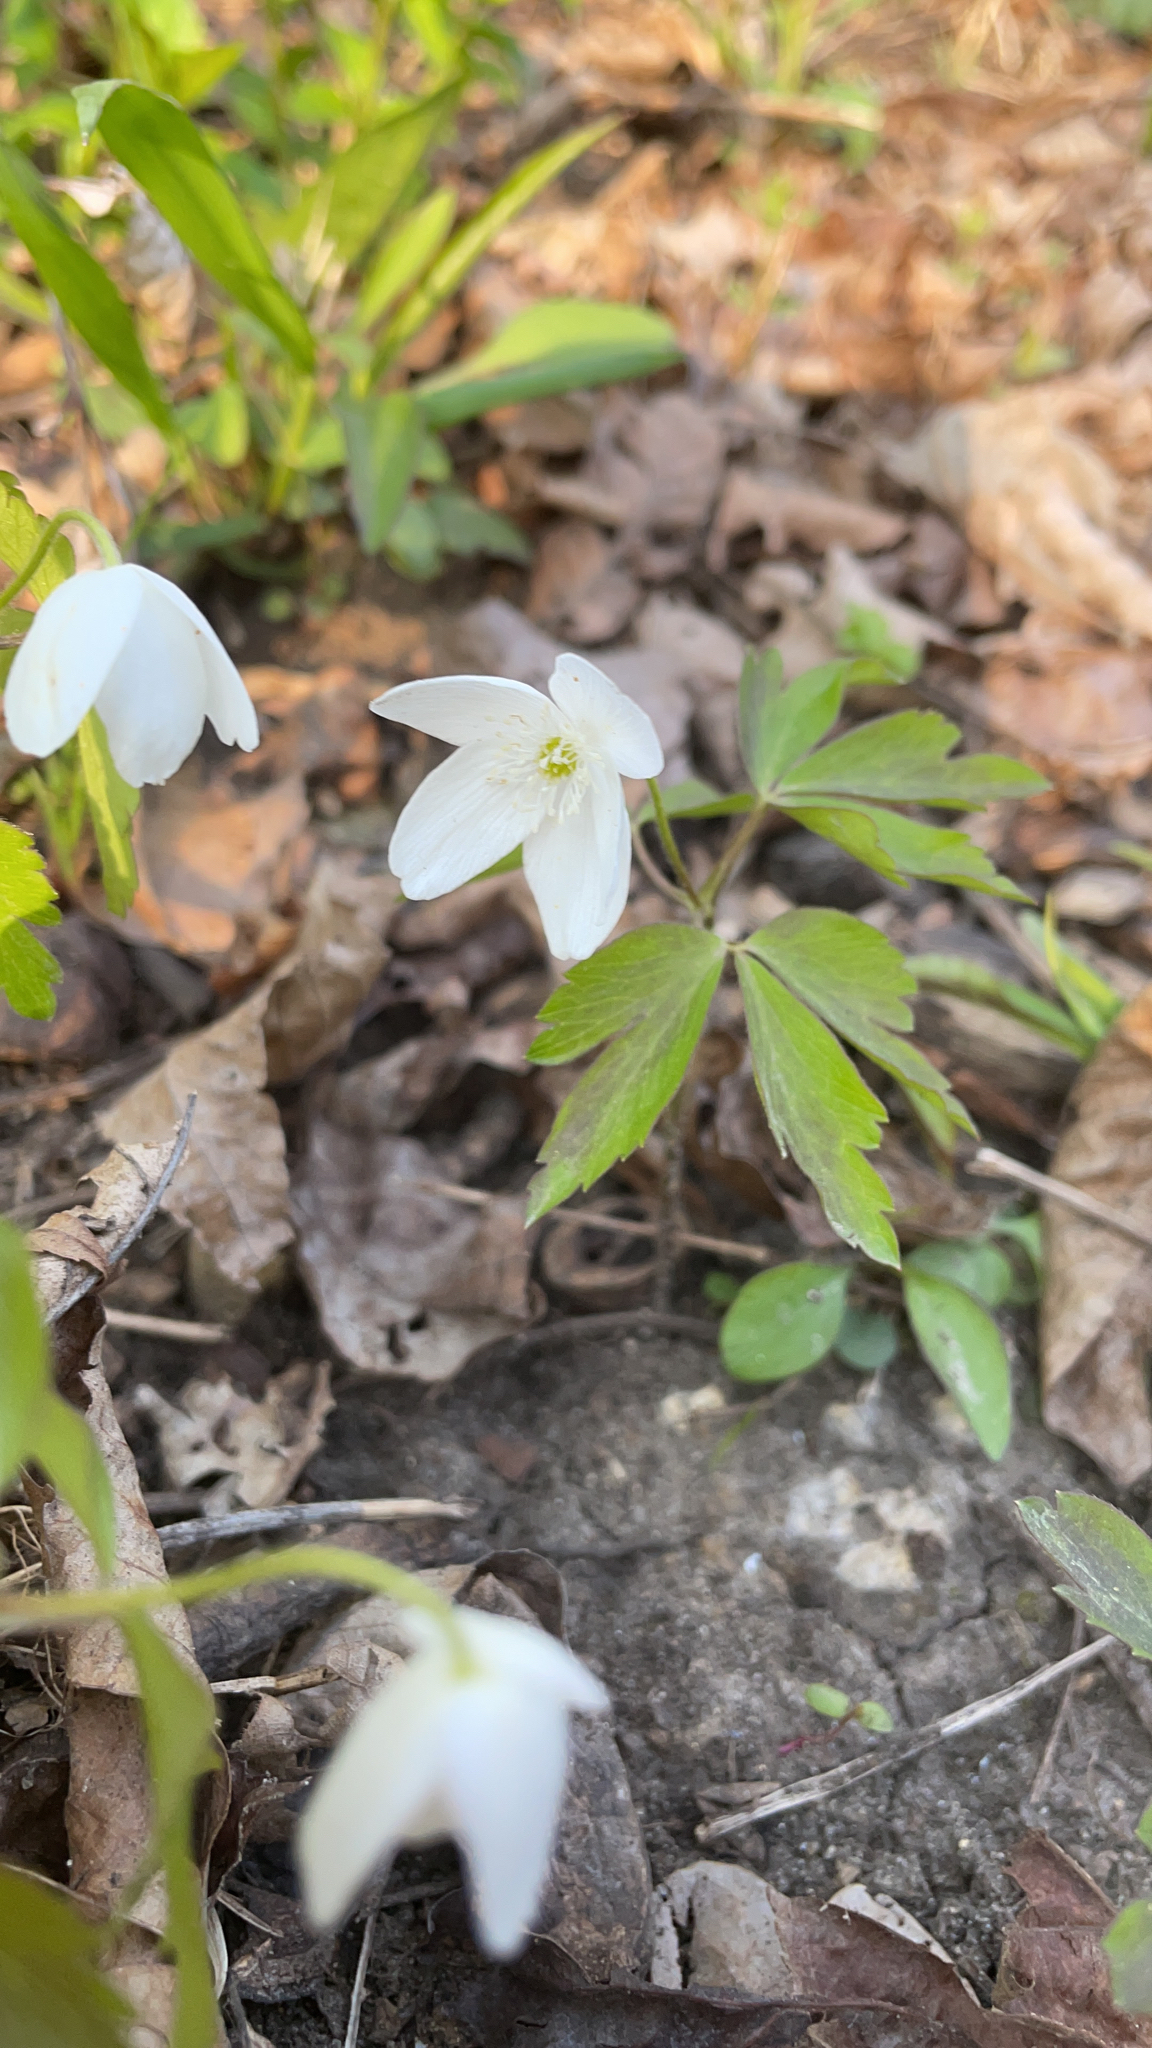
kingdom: Plantae
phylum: Tracheophyta
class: Magnoliopsida
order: Ranunculales
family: Ranunculaceae
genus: Anemone
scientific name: Anemone quinquefolia
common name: Wood anemone
